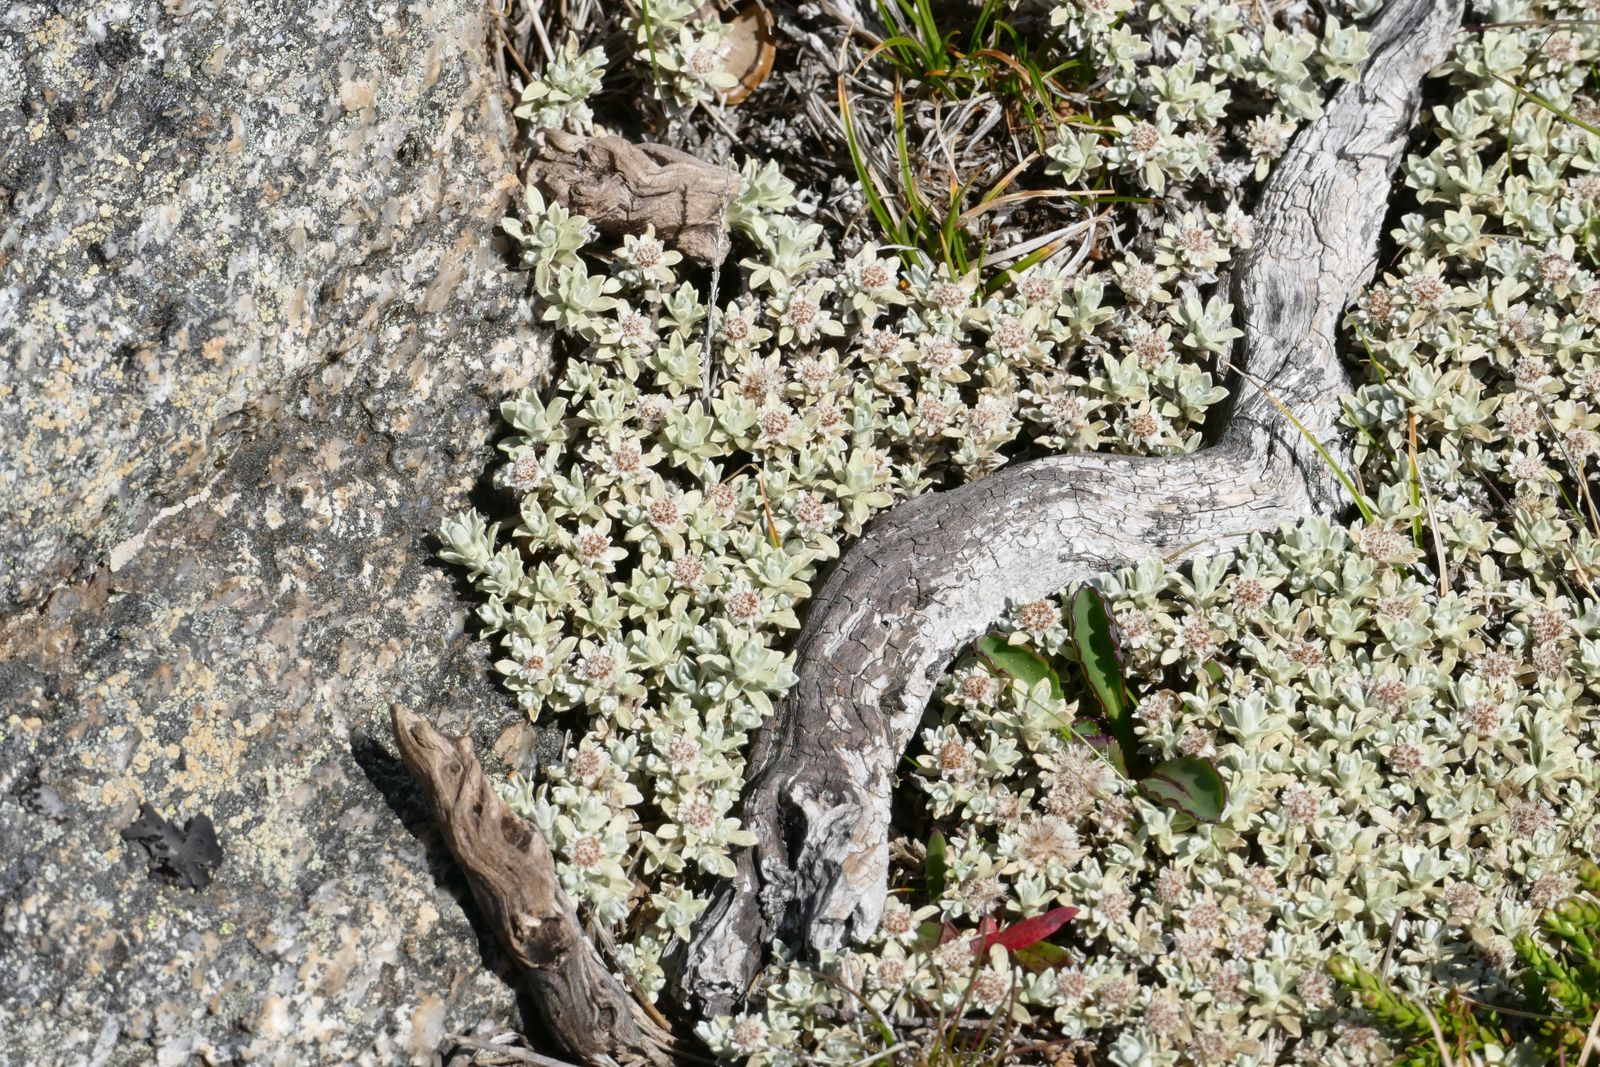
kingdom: Plantae
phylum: Tracheophyta
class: Magnoliopsida
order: Asterales
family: Asteraceae
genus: Ewartia
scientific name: Ewartia nubigena
